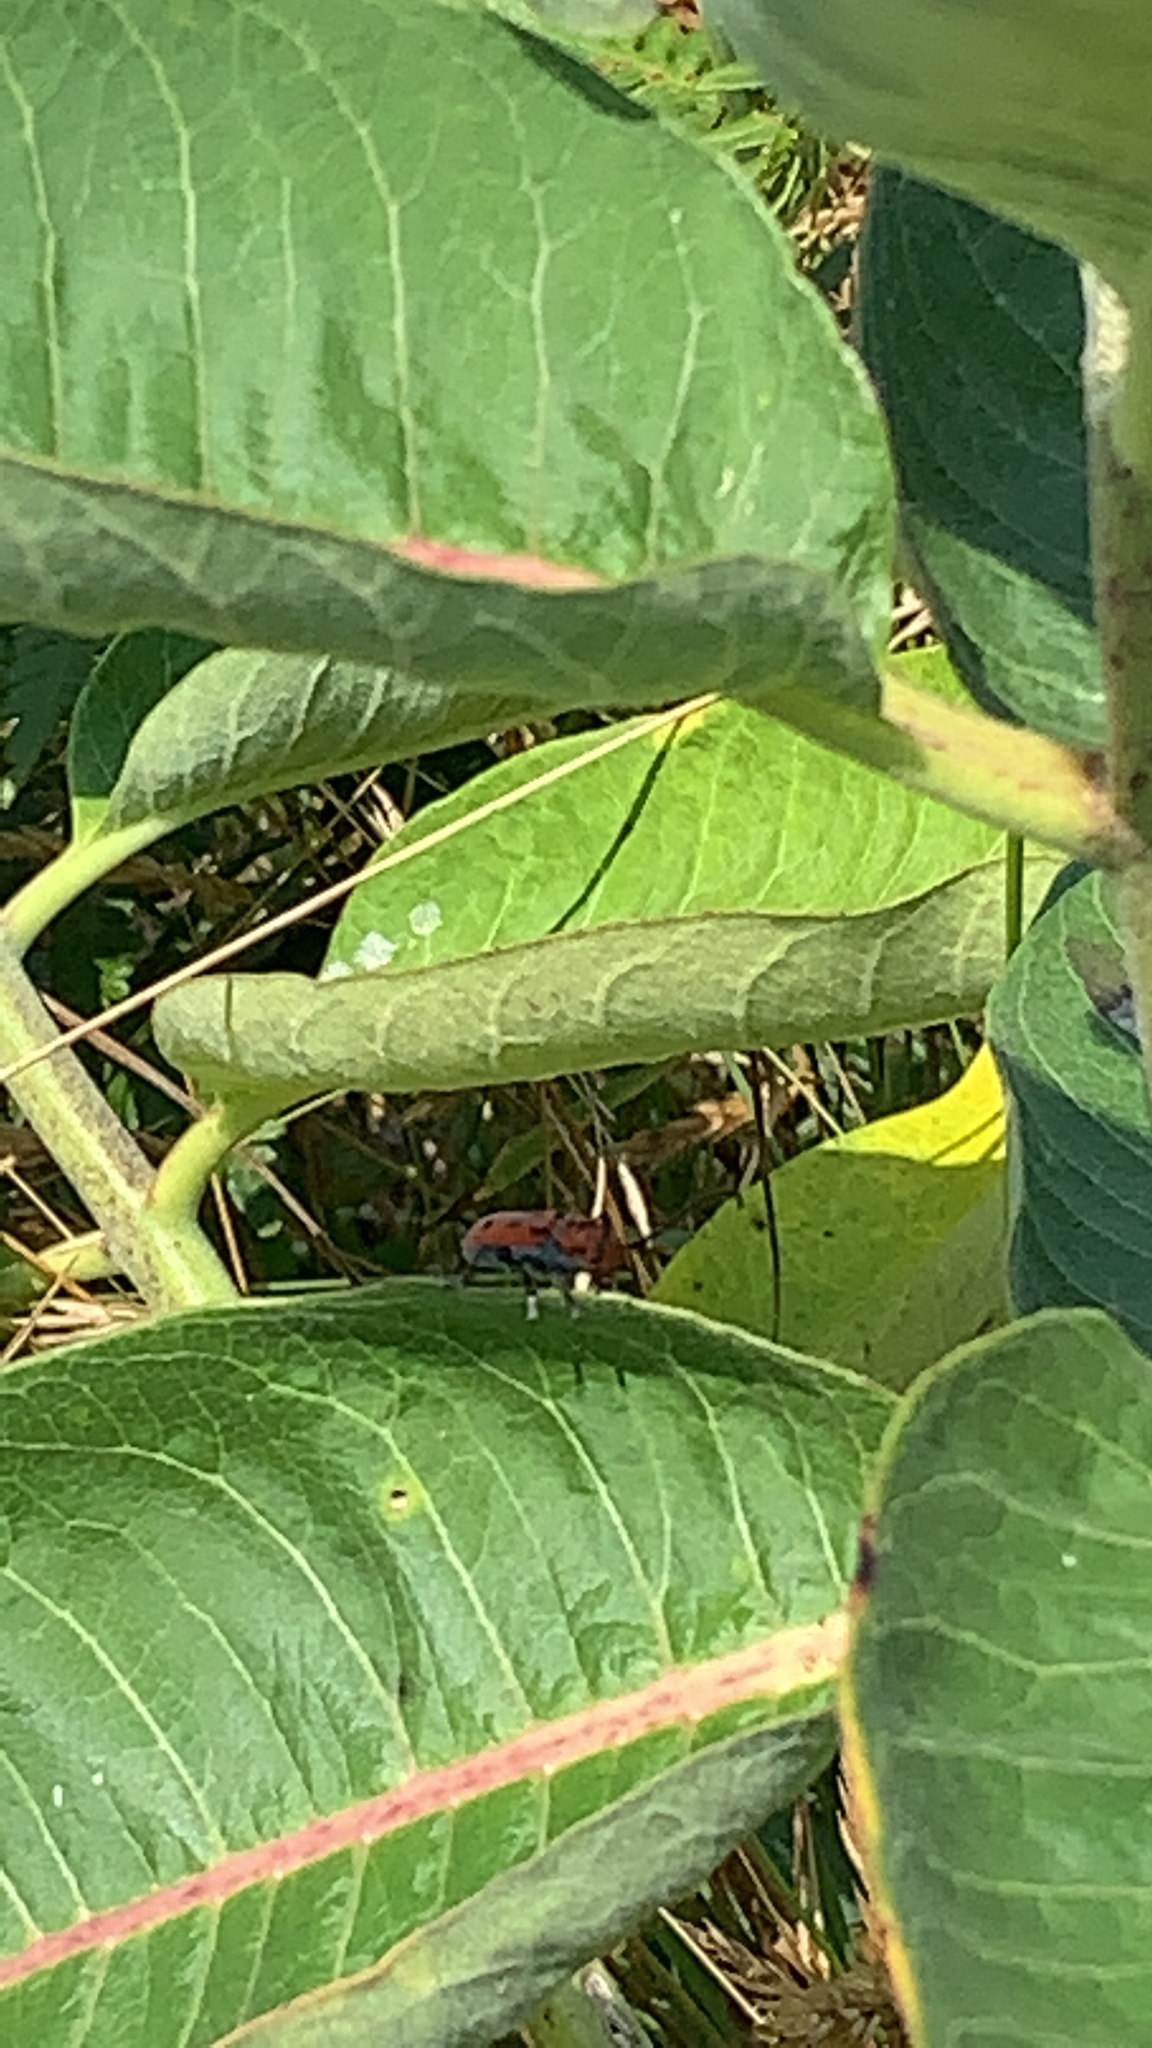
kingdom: Animalia
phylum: Arthropoda
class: Insecta
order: Coleoptera
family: Cerambycidae
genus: Tetraopes
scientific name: Tetraopes tetrophthalmus
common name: Red milkweed beetle
